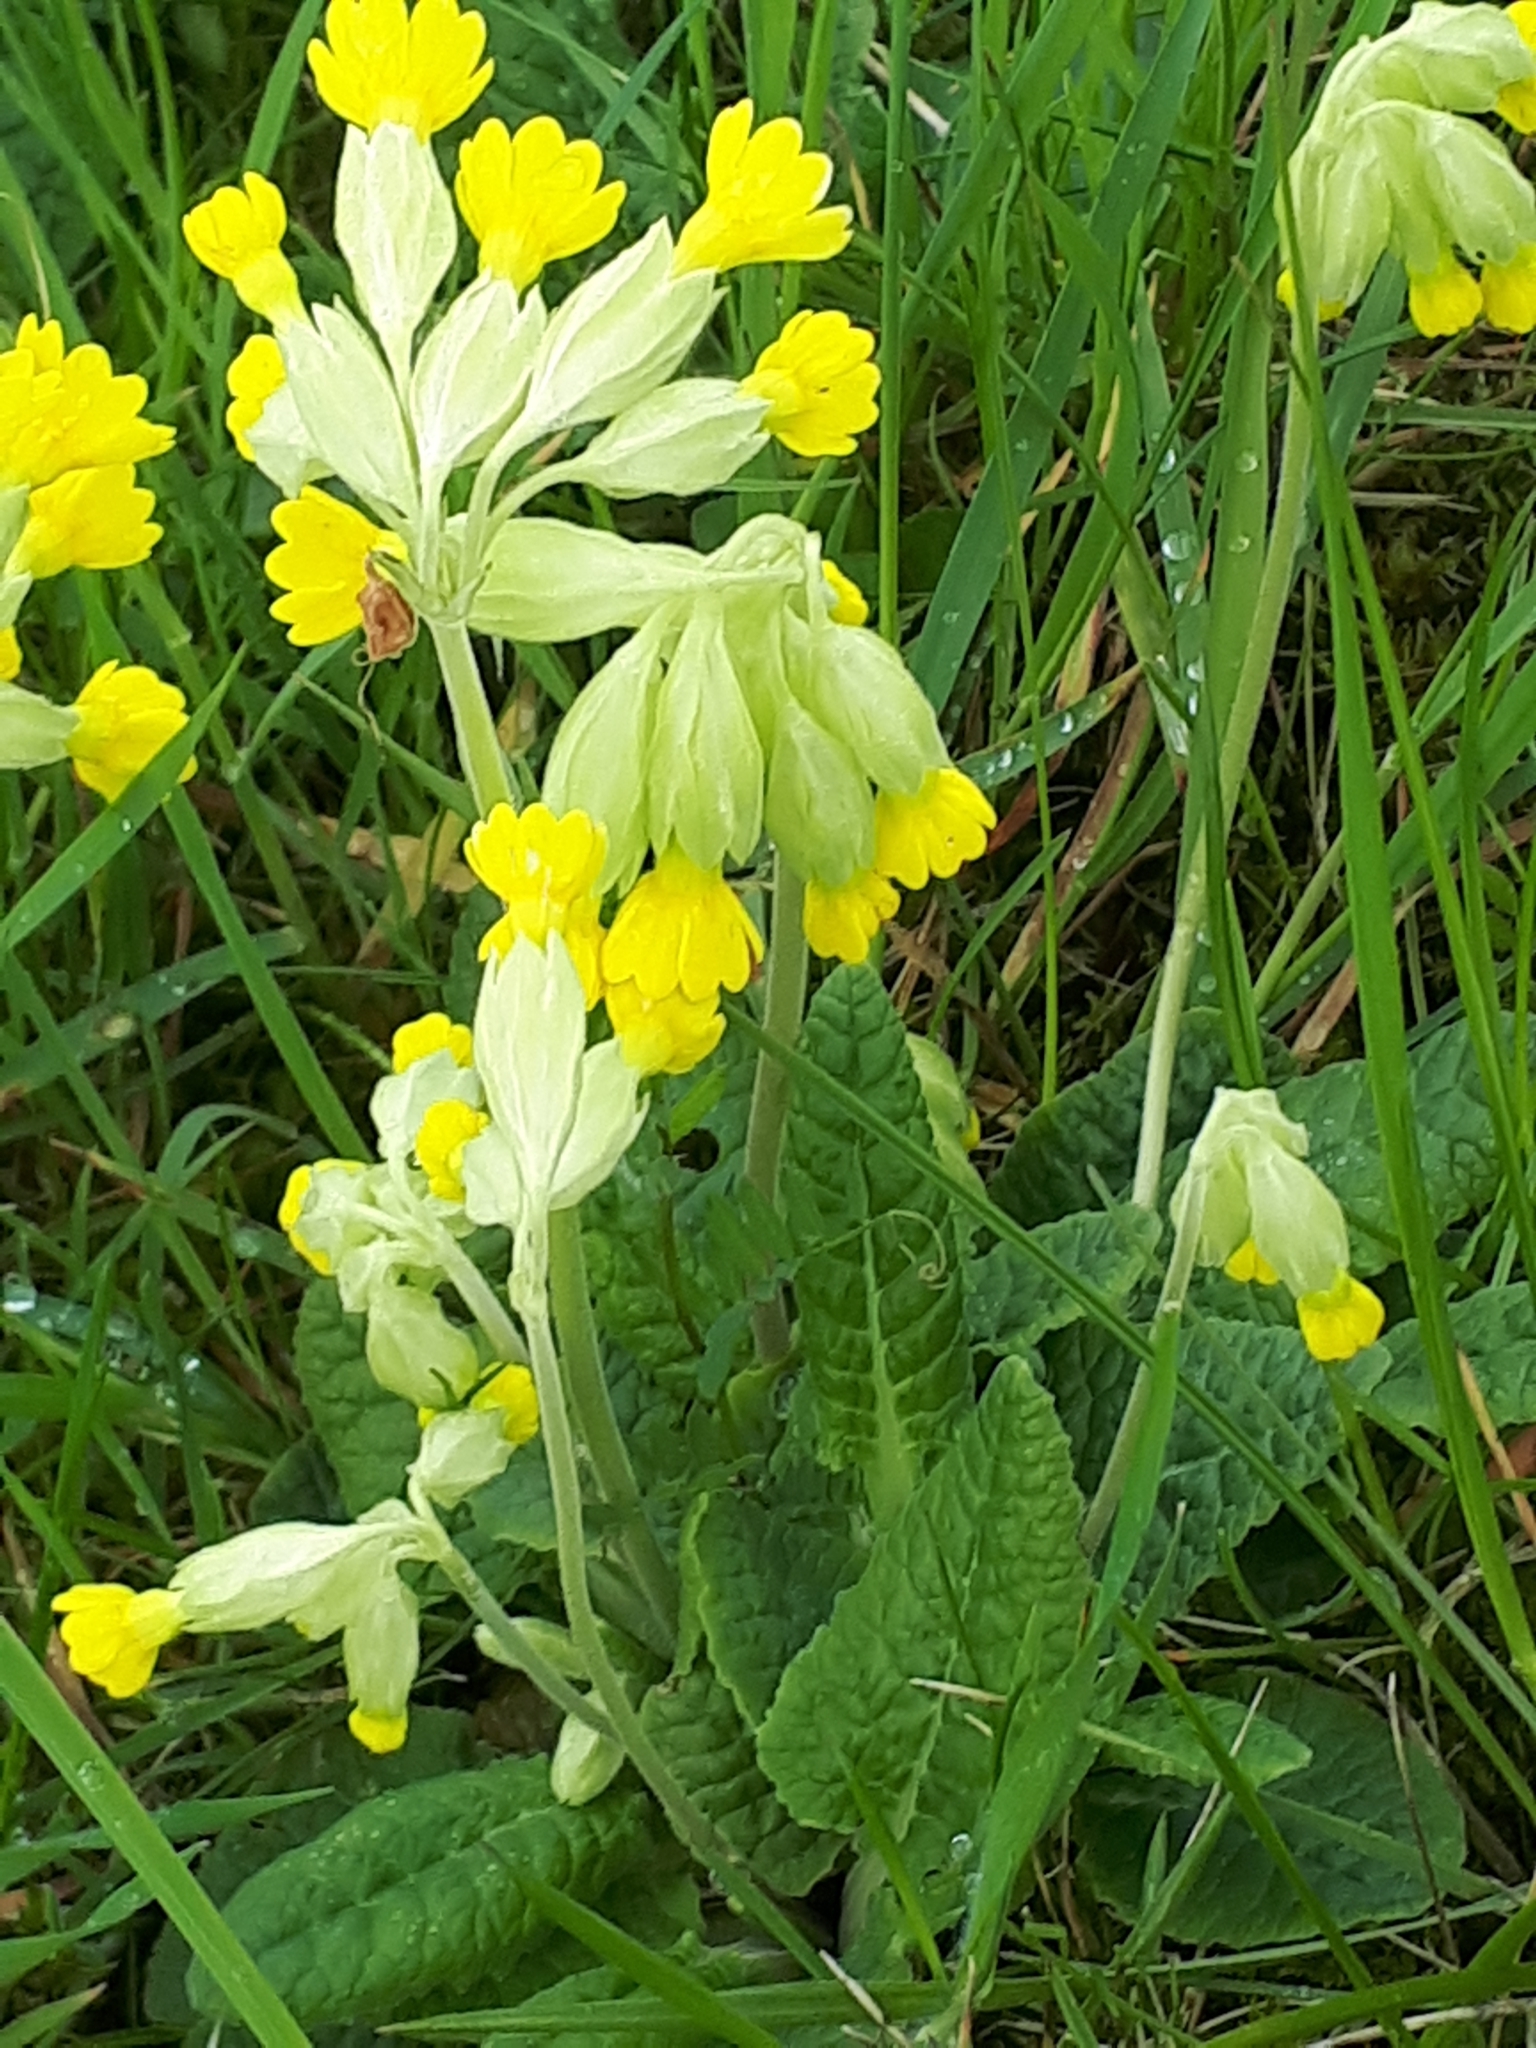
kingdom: Plantae
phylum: Tracheophyta
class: Magnoliopsida
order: Ericales
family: Primulaceae
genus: Primula
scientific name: Primula veris
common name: Cowslip
